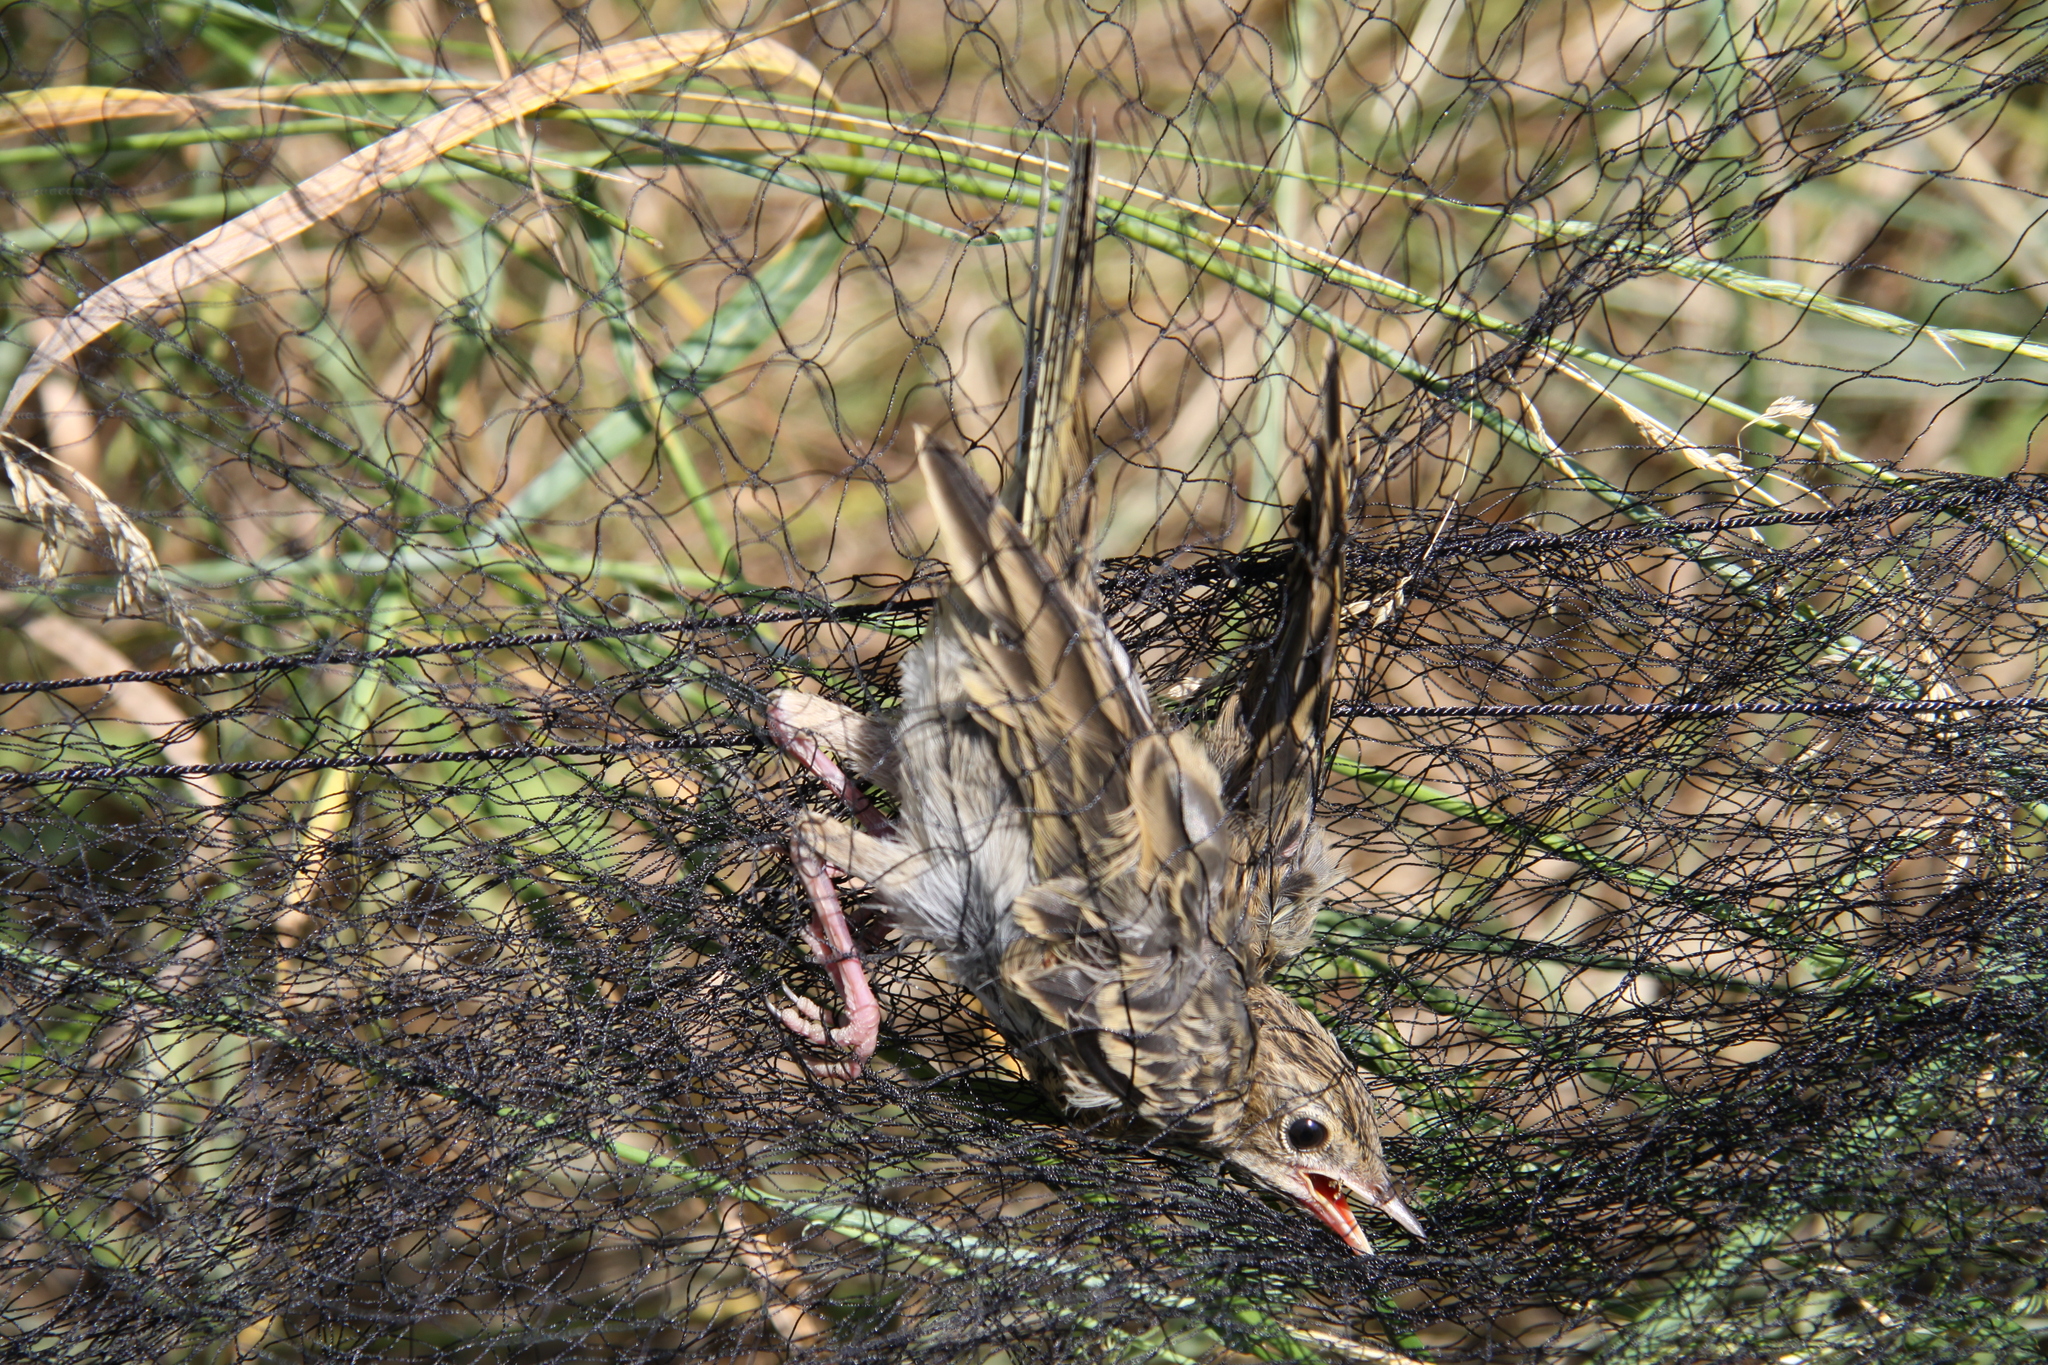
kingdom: Animalia
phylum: Chordata
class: Aves
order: Passeriformes
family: Motacillidae
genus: Anthus
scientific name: Anthus trivialis
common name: Tree pipit
